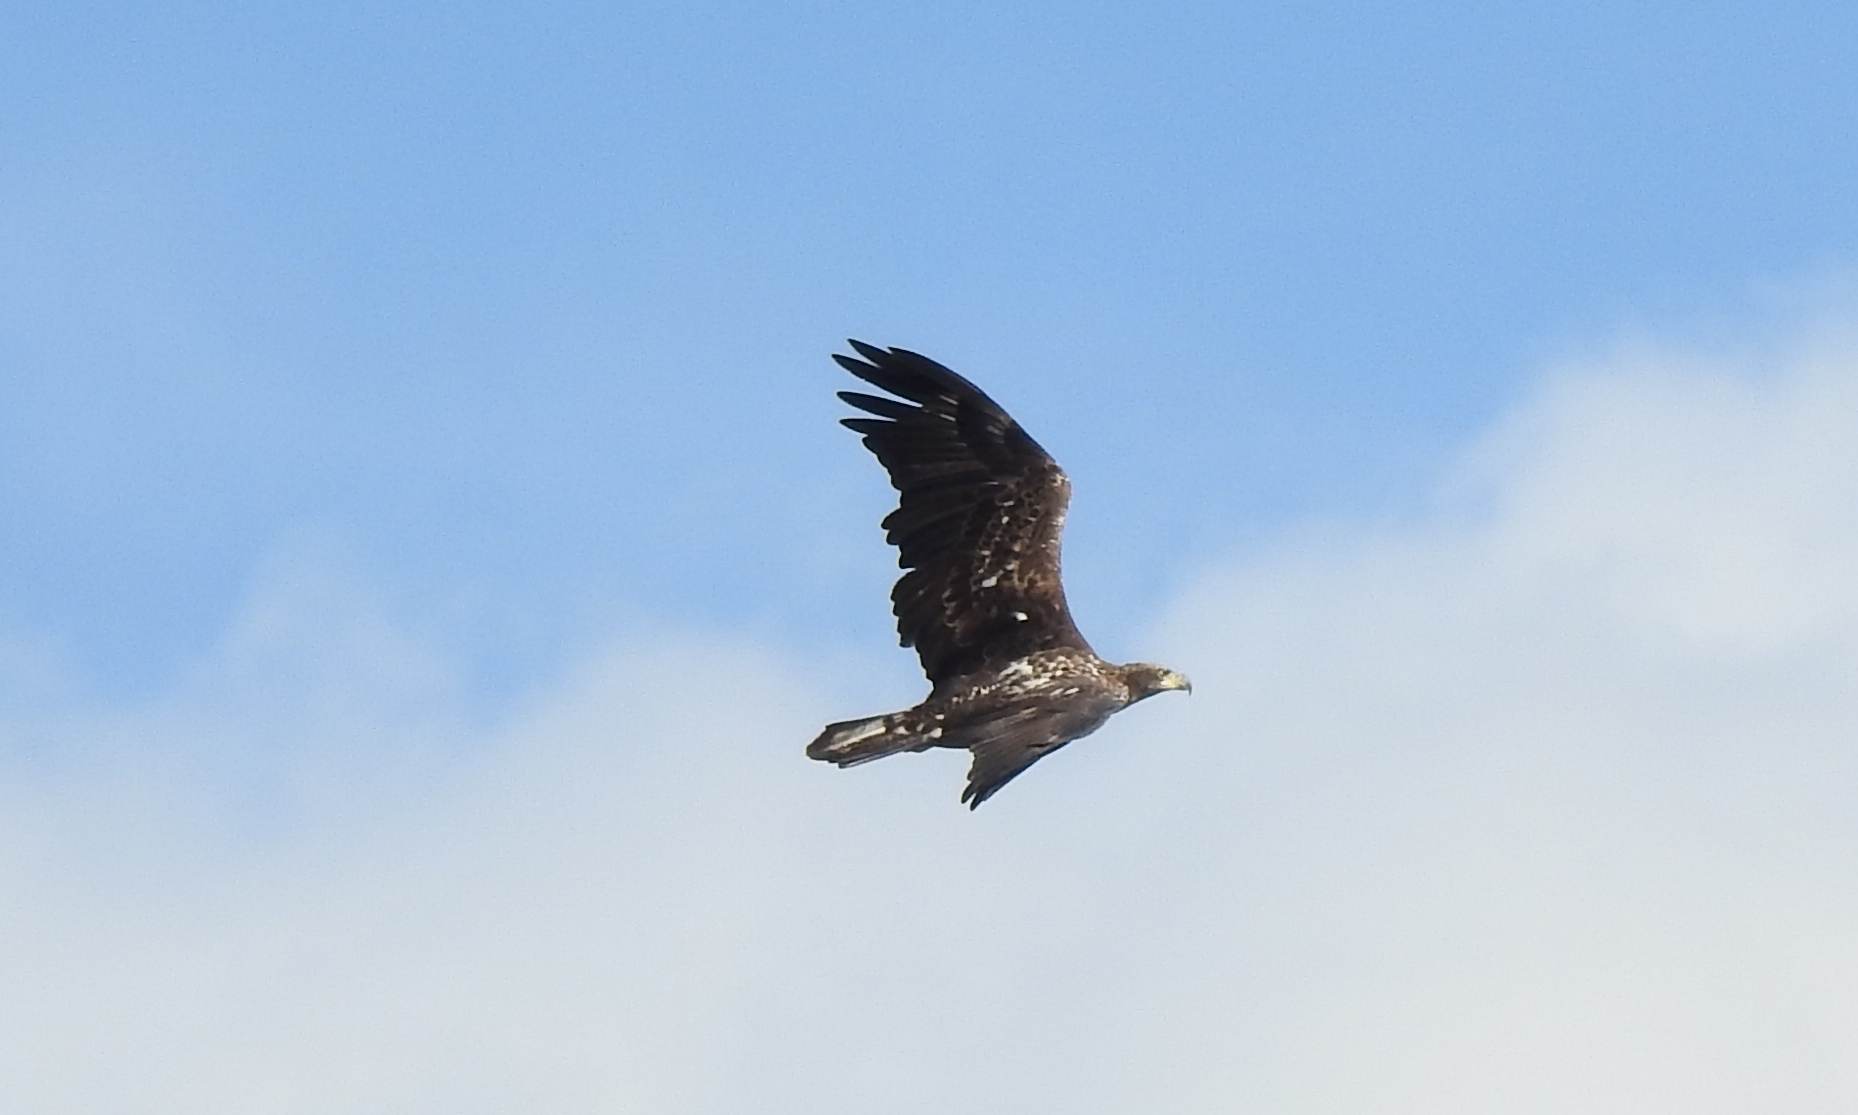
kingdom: Animalia
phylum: Chordata
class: Aves
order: Accipitriformes
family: Accipitridae
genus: Haliaeetus
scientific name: Haliaeetus leucocephalus
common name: Bald eagle
